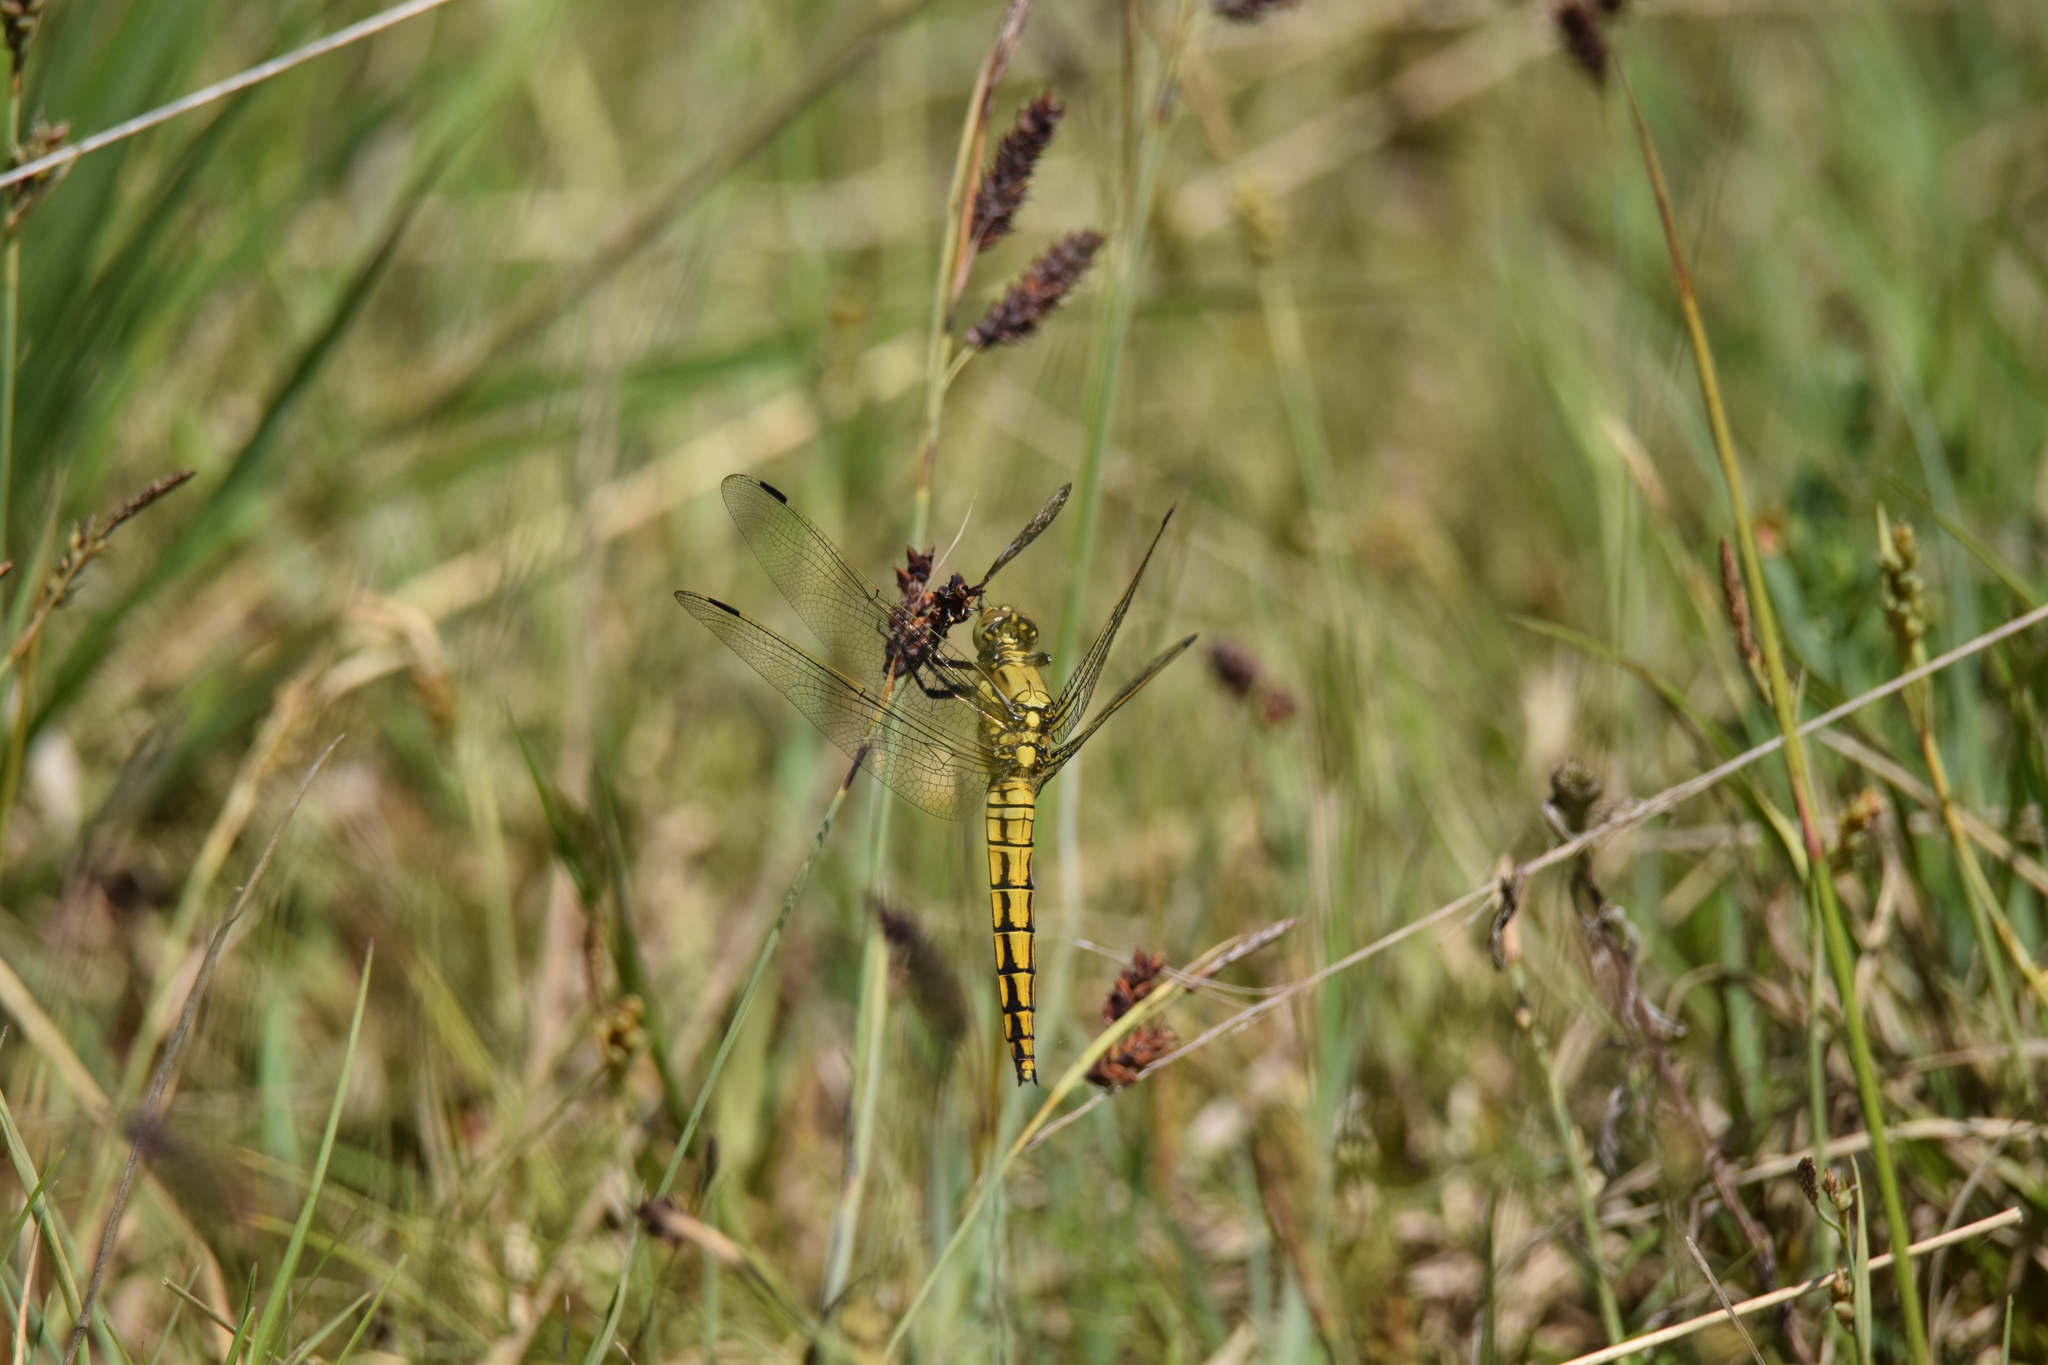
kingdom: Animalia
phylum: Arthropoda
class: Insecta
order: Odonata
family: Libellulidae
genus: Orthetrum
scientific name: Orthetrum cancellatum
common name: Black-tailed skimmer
